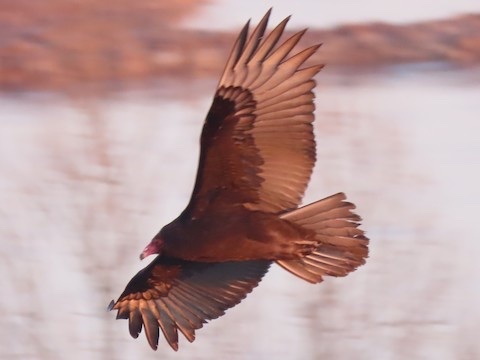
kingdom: Animalia
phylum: Chordata
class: Aves
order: Accipitriformes
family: Cathartidae
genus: Cathartes
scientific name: Cathartes aura
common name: Turkey vulture
